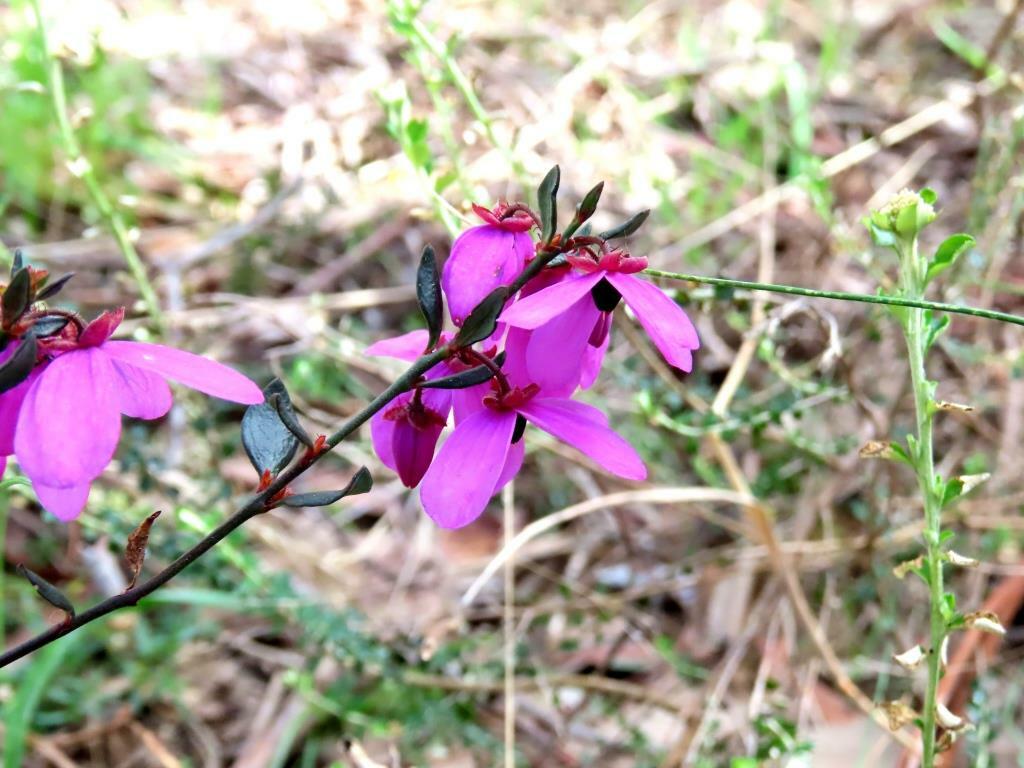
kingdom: Plantae
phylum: Tracheophyta
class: Magnoliopsida
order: Oxalidales
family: Elaeocarpaceae
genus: Tetratheca
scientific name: Tetratheca ciliata
